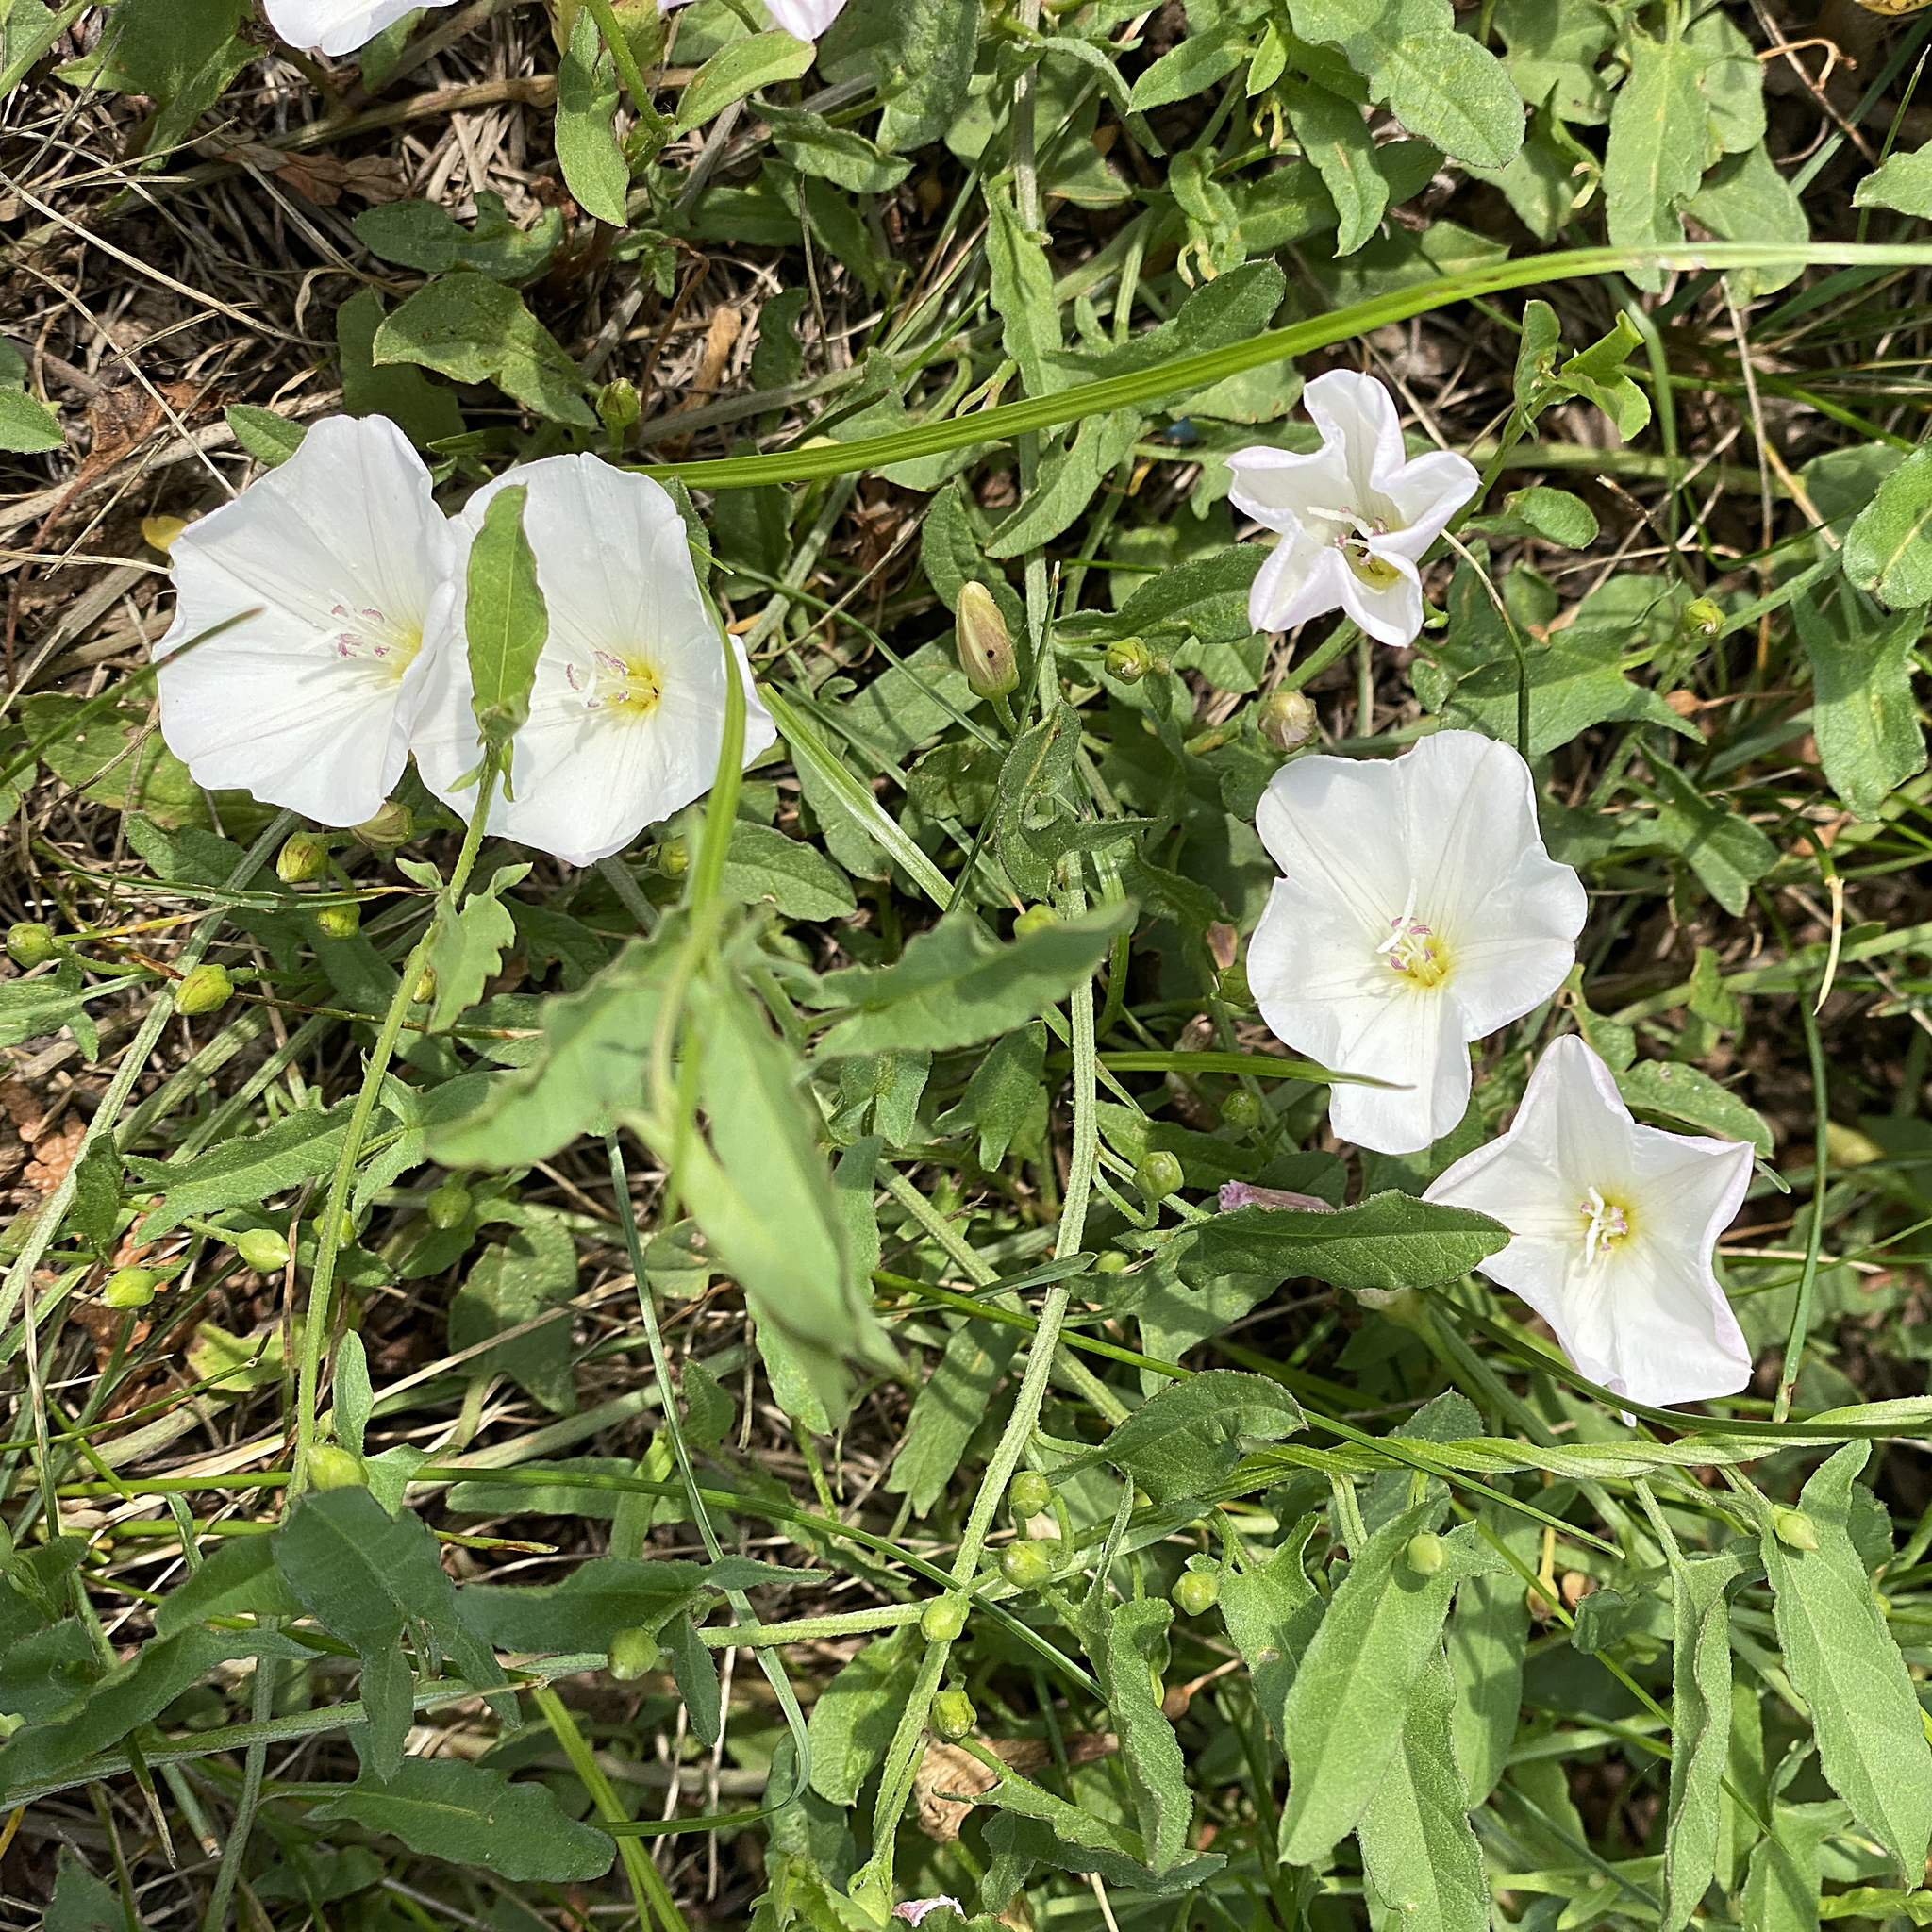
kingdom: Plantae
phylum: Tracheophyta
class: Magnoliopsida
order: Solanales
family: Convolvulaceae
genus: Convolvulus
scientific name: Convolvulus arvensis
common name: Field bindweed
